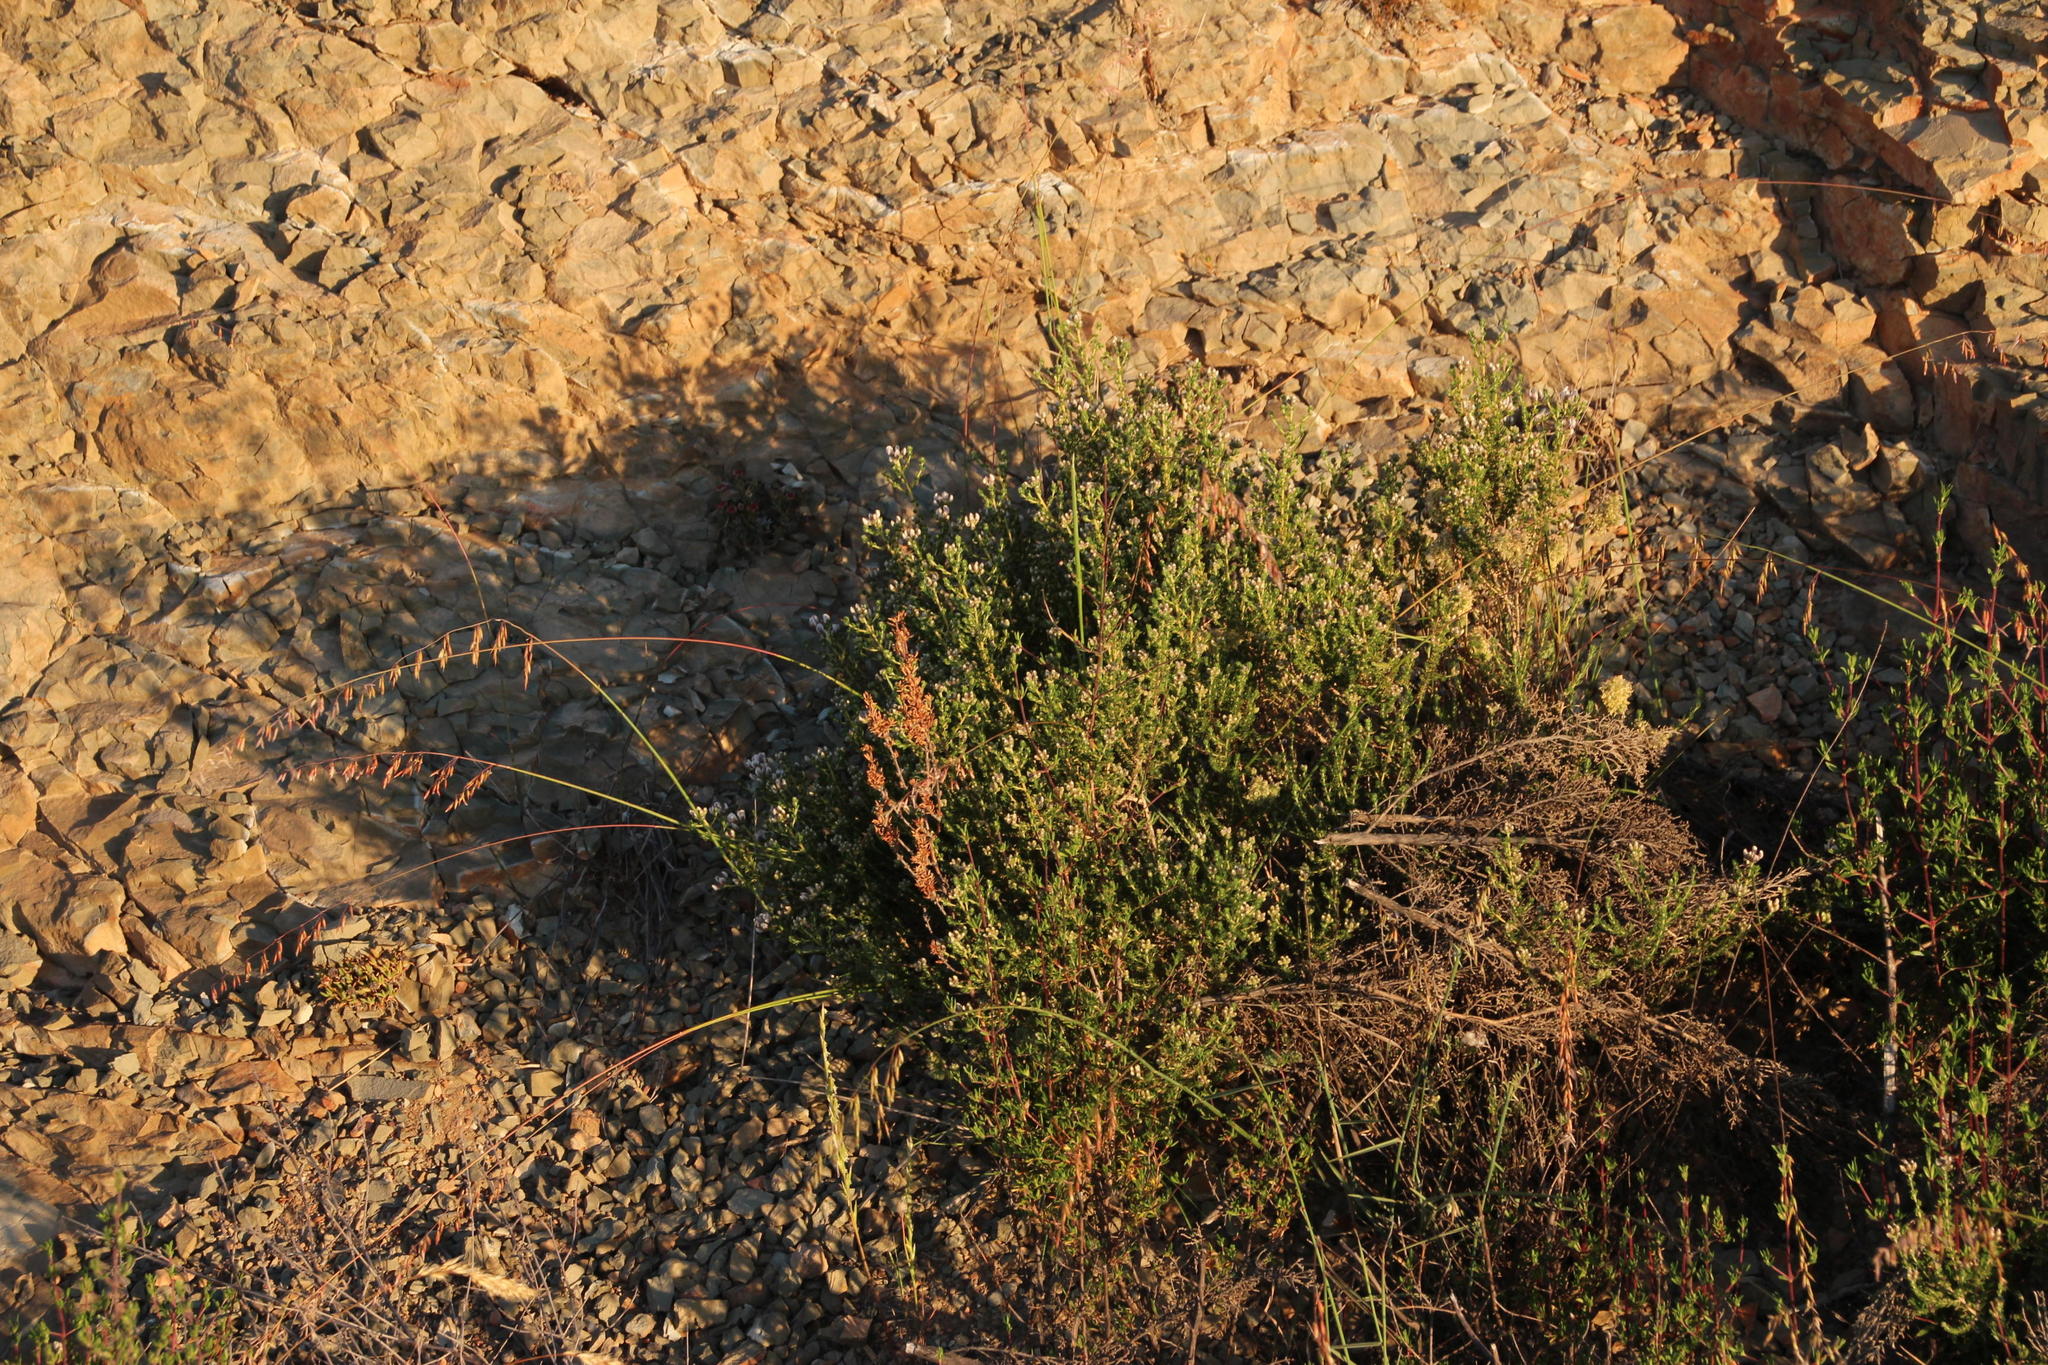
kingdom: Plantae
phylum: Tracheophyta
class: Liliopsida
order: Poales
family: Poaceae
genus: Ehrharta
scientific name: Ehrharta calycina
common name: Perennial veldtgrass
